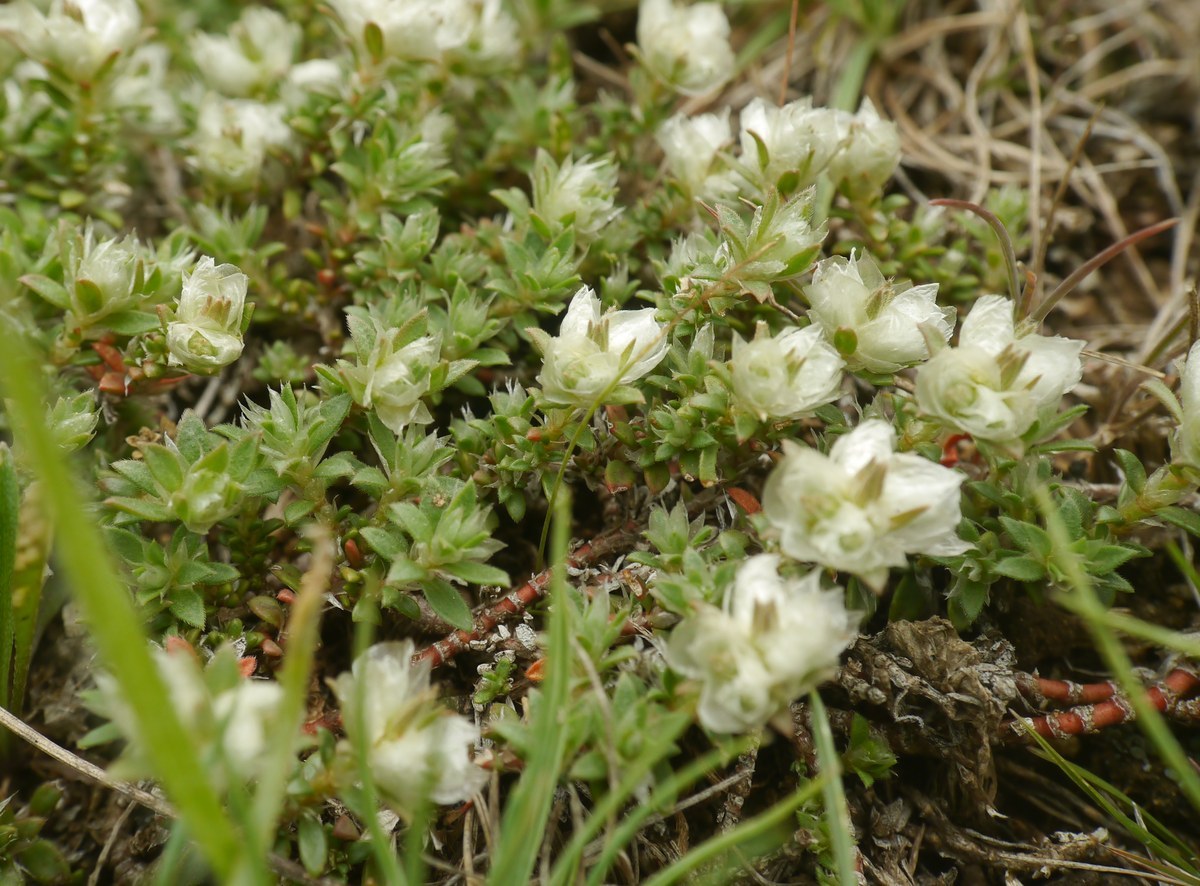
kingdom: Plantae
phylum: Tracheophyta
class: Magnoliopsida
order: Caryophyllales
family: Caryophyllaceae
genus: Paronychia
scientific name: Paronychia cephalotes
